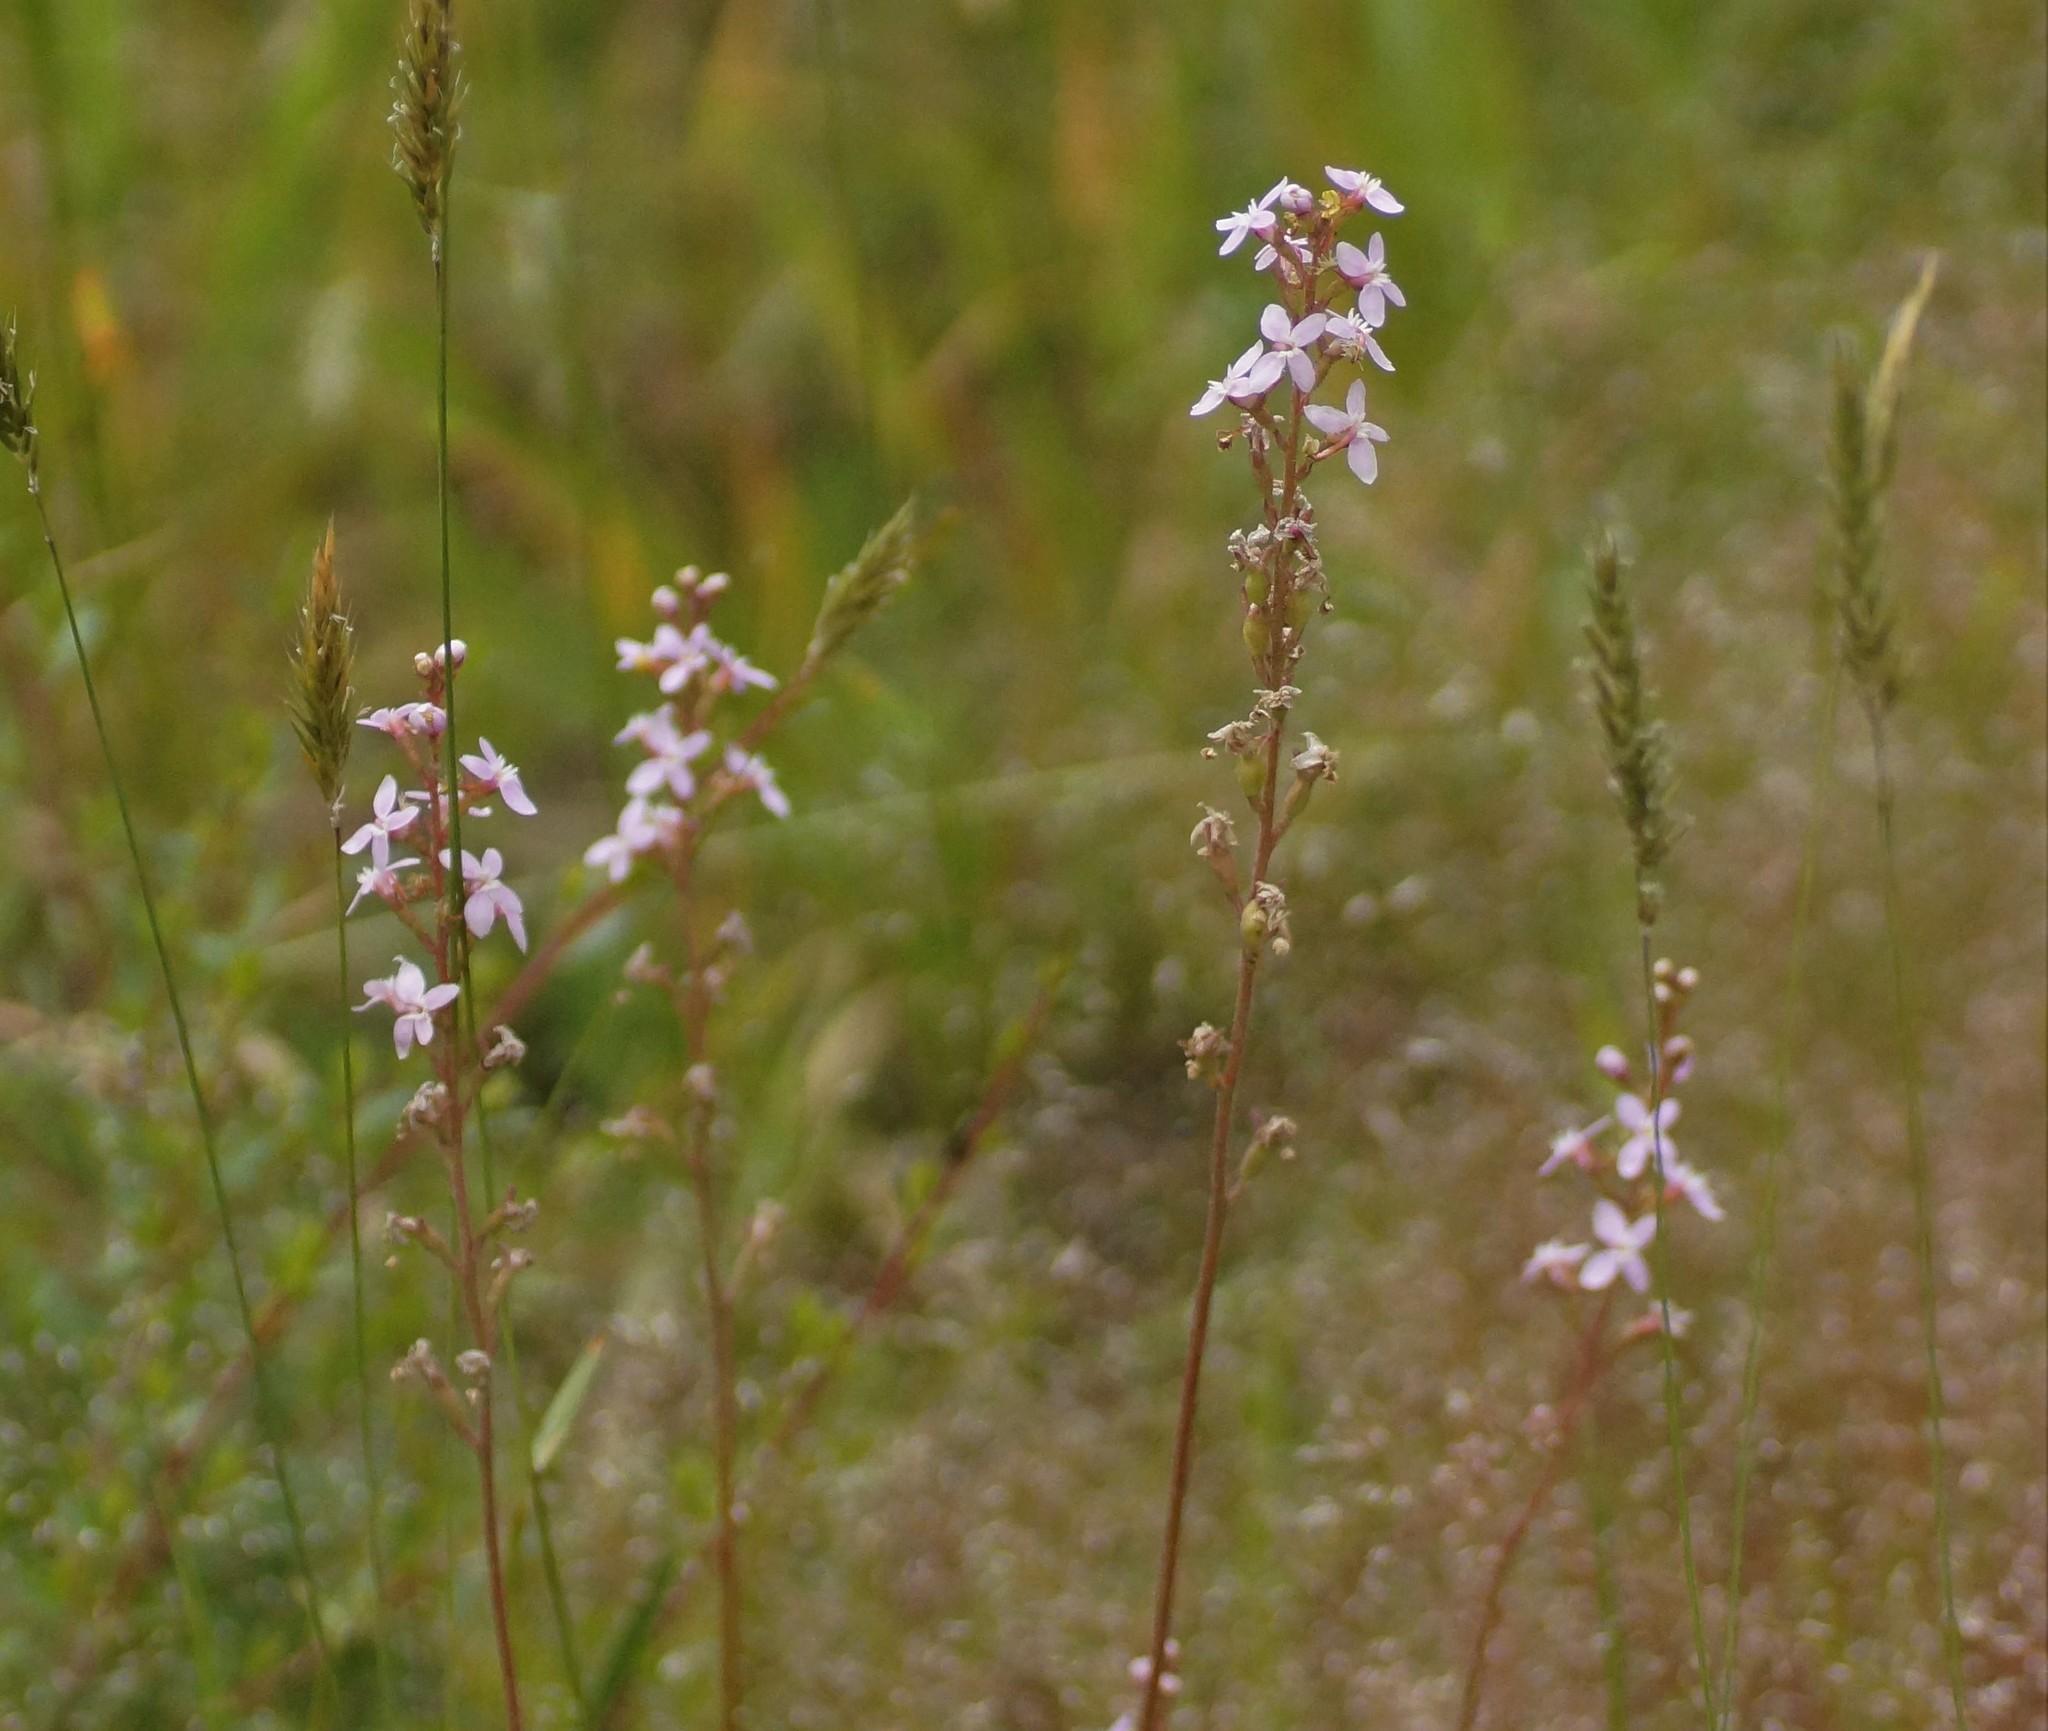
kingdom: Plantae
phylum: Tracheophyta
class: Magnoliopsida
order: Asterales
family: Stylidiaceae
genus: Stylidium
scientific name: Stylidium graminifolium
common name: Grass triggerplant
